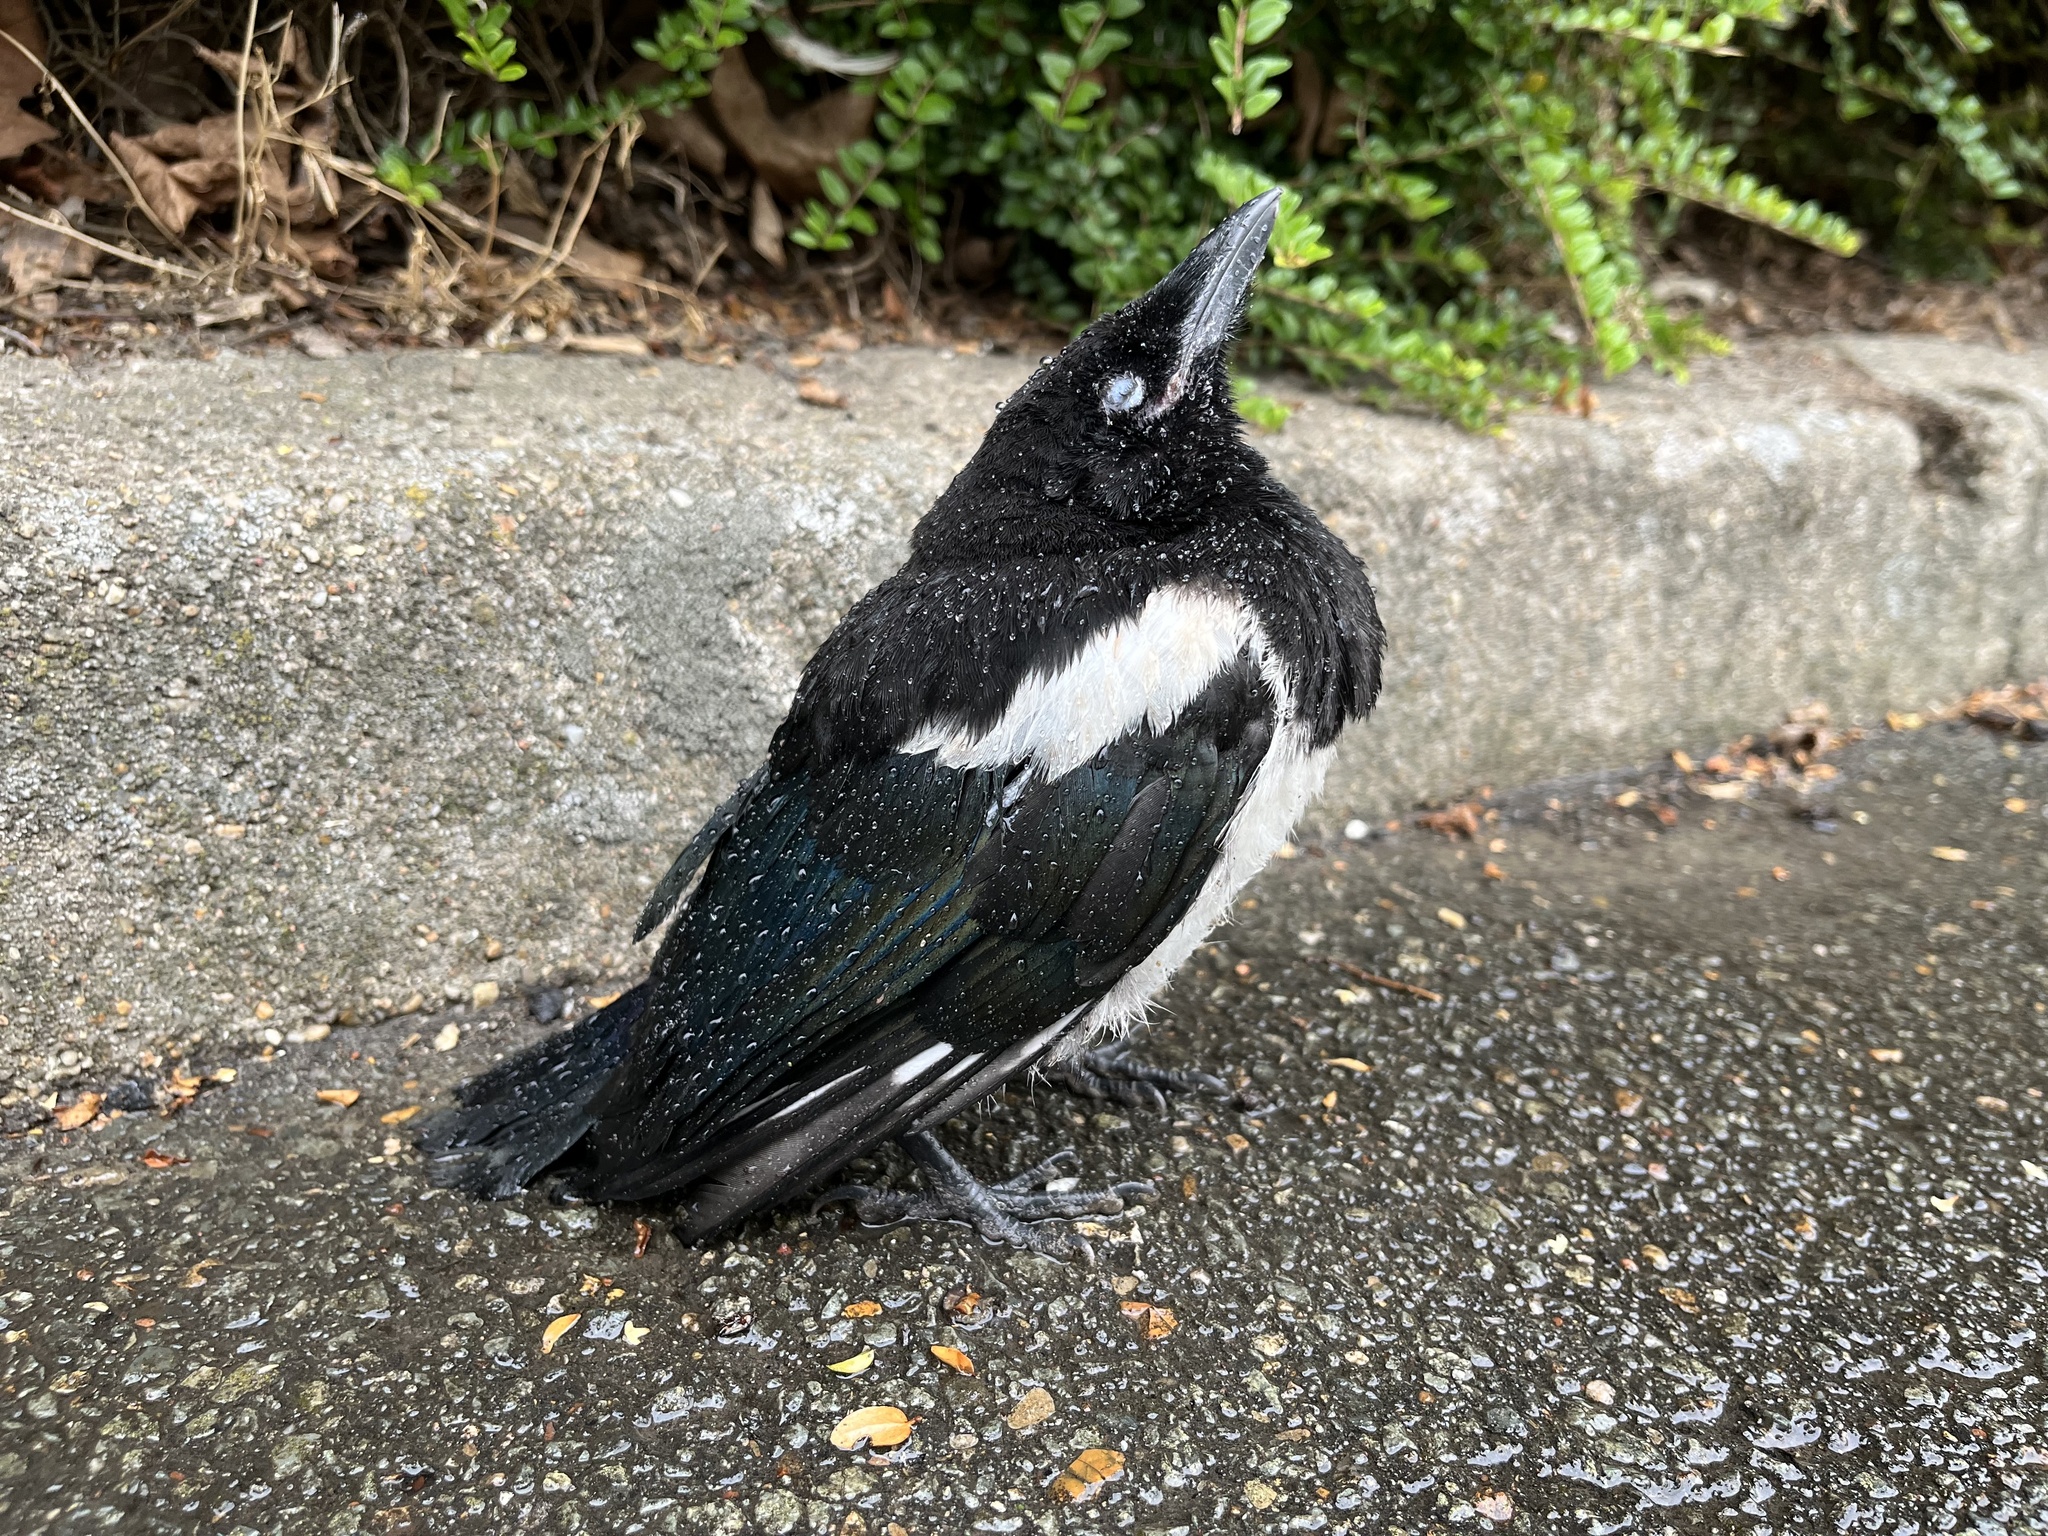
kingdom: Animalia
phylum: Chordata
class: Aves
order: Passeriformes
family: Corvidae
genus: Pica
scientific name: Pica pica
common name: Eurasian magpie
